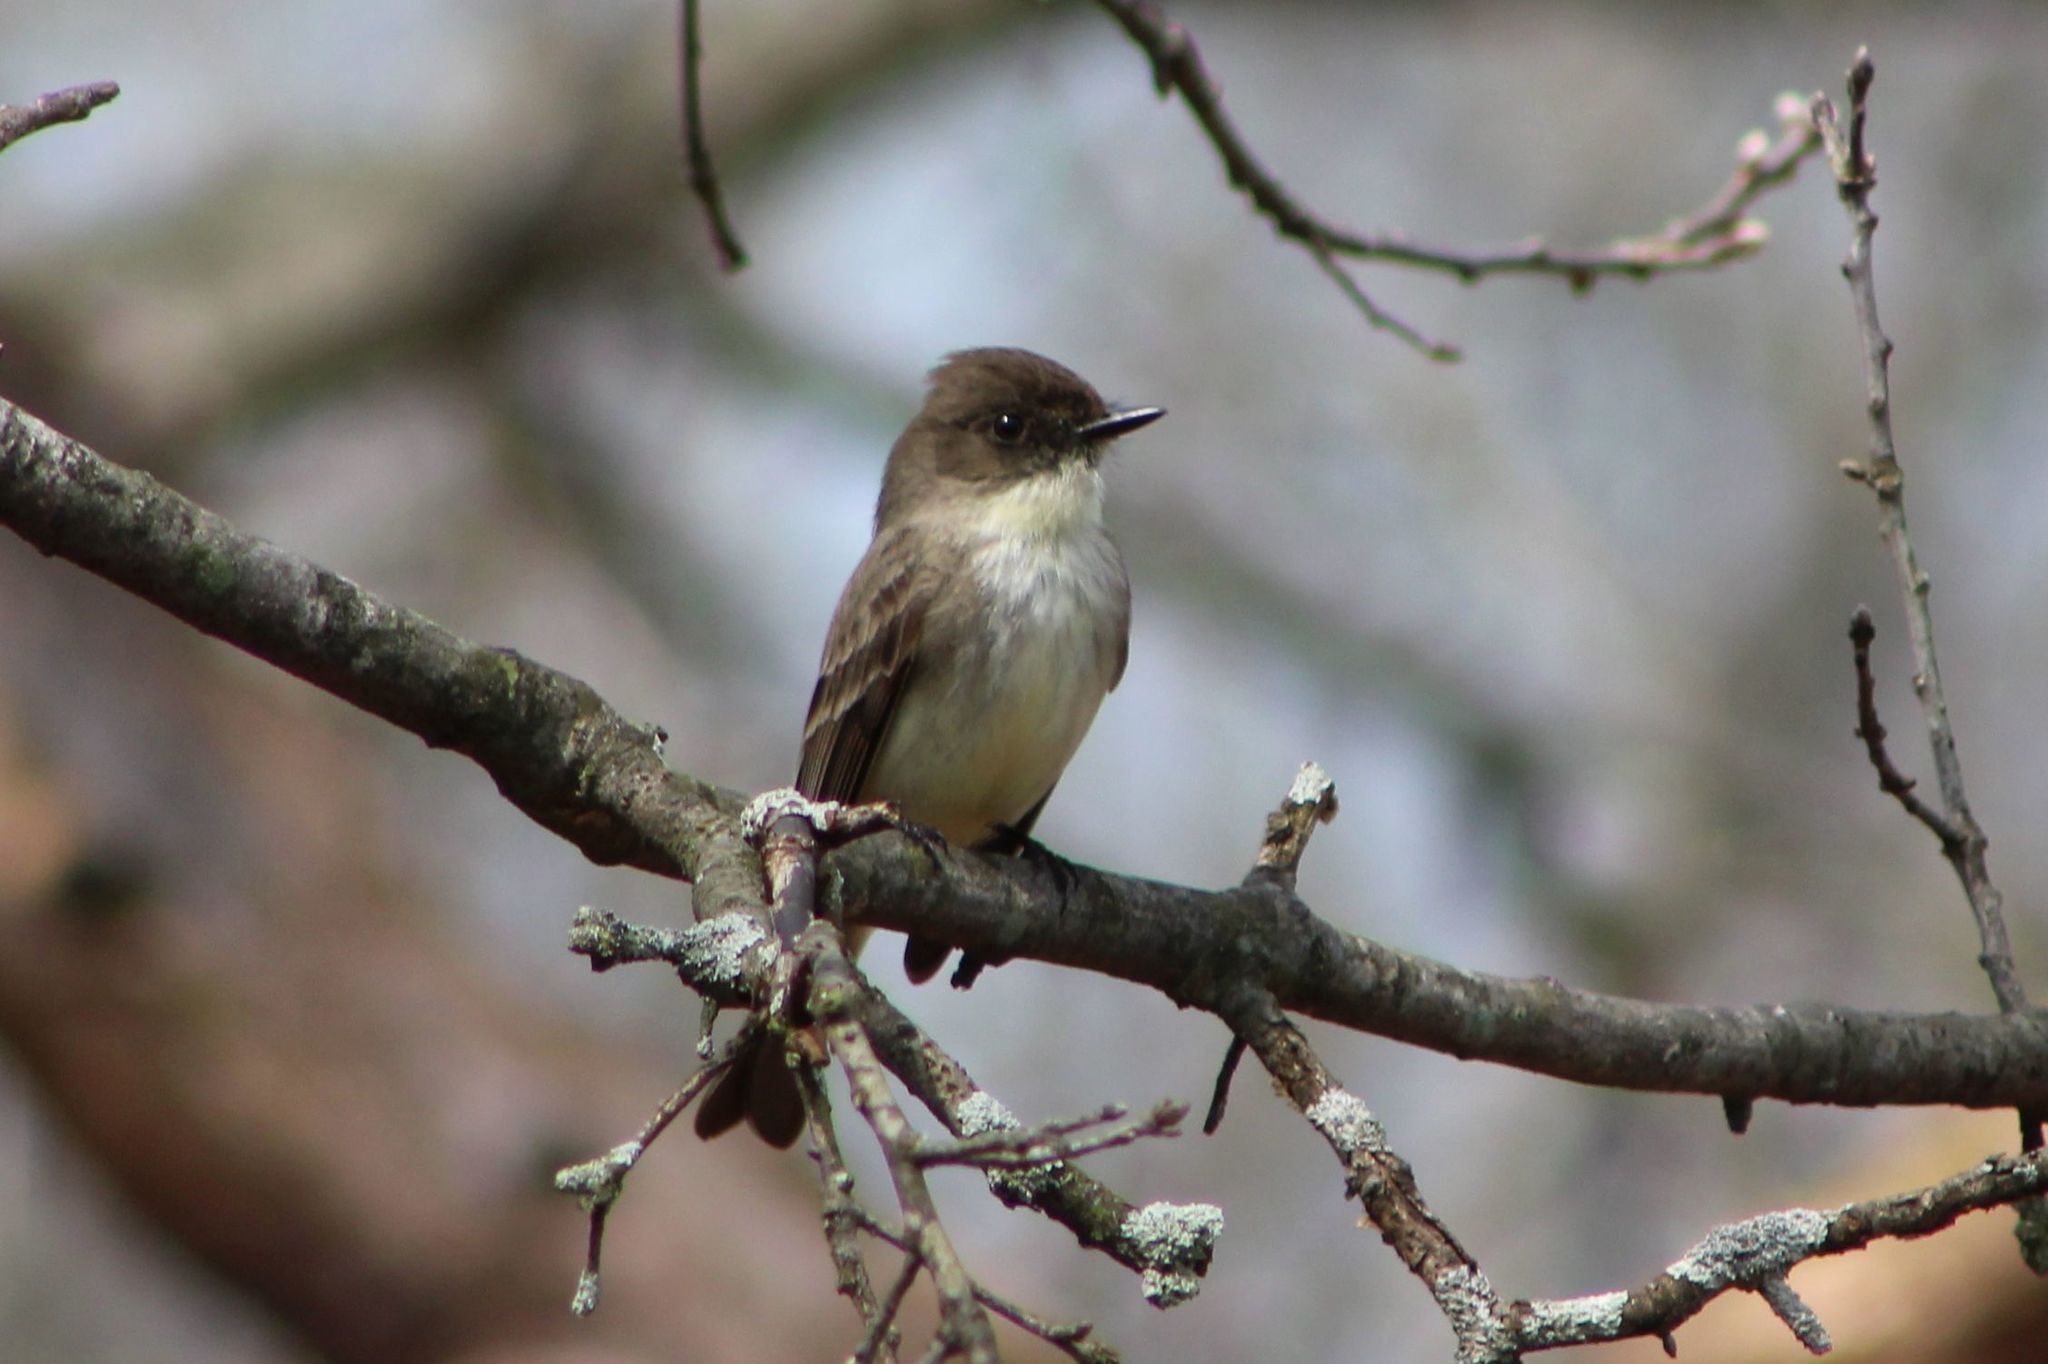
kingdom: Animalia
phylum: Chordata
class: Aves
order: Passeriformes
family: Tyrannidae
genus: Sayornis
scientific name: Sayornis phoebe
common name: Eastern phoebe
